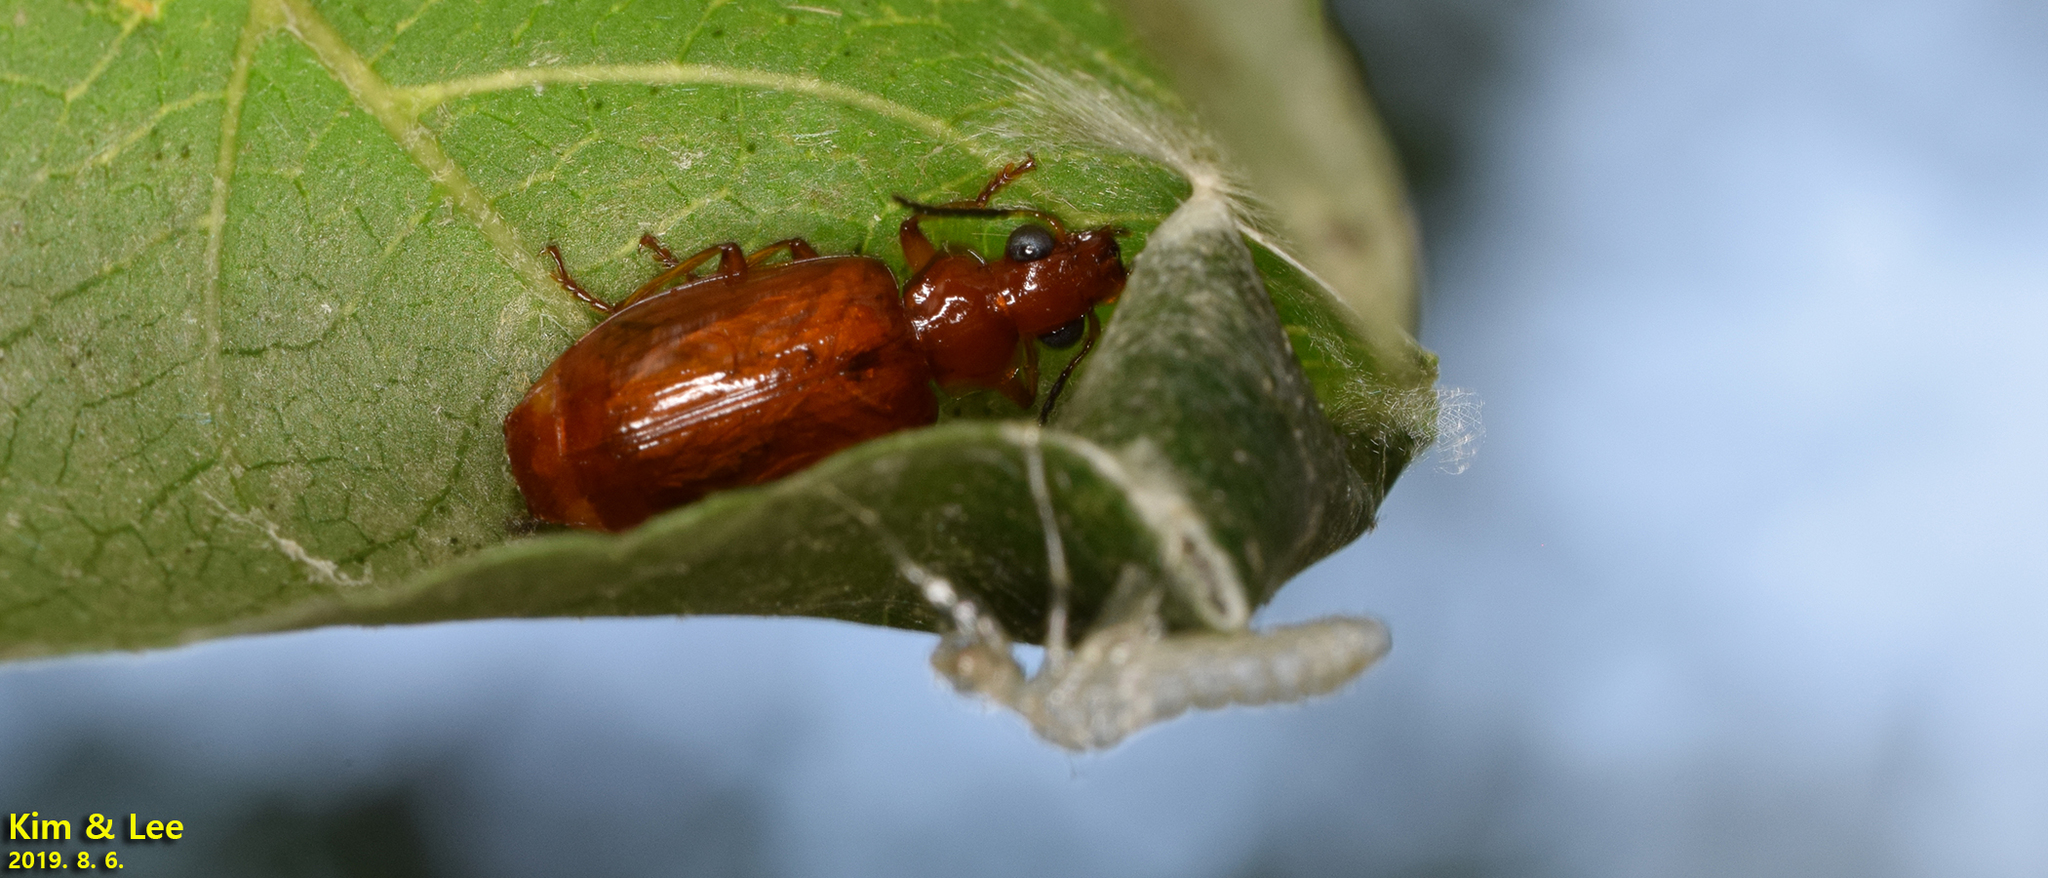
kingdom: Animalia
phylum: Arthropoda
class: Insecta
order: Coleoptera
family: Carabidae
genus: Parena
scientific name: Parena cavipennis
